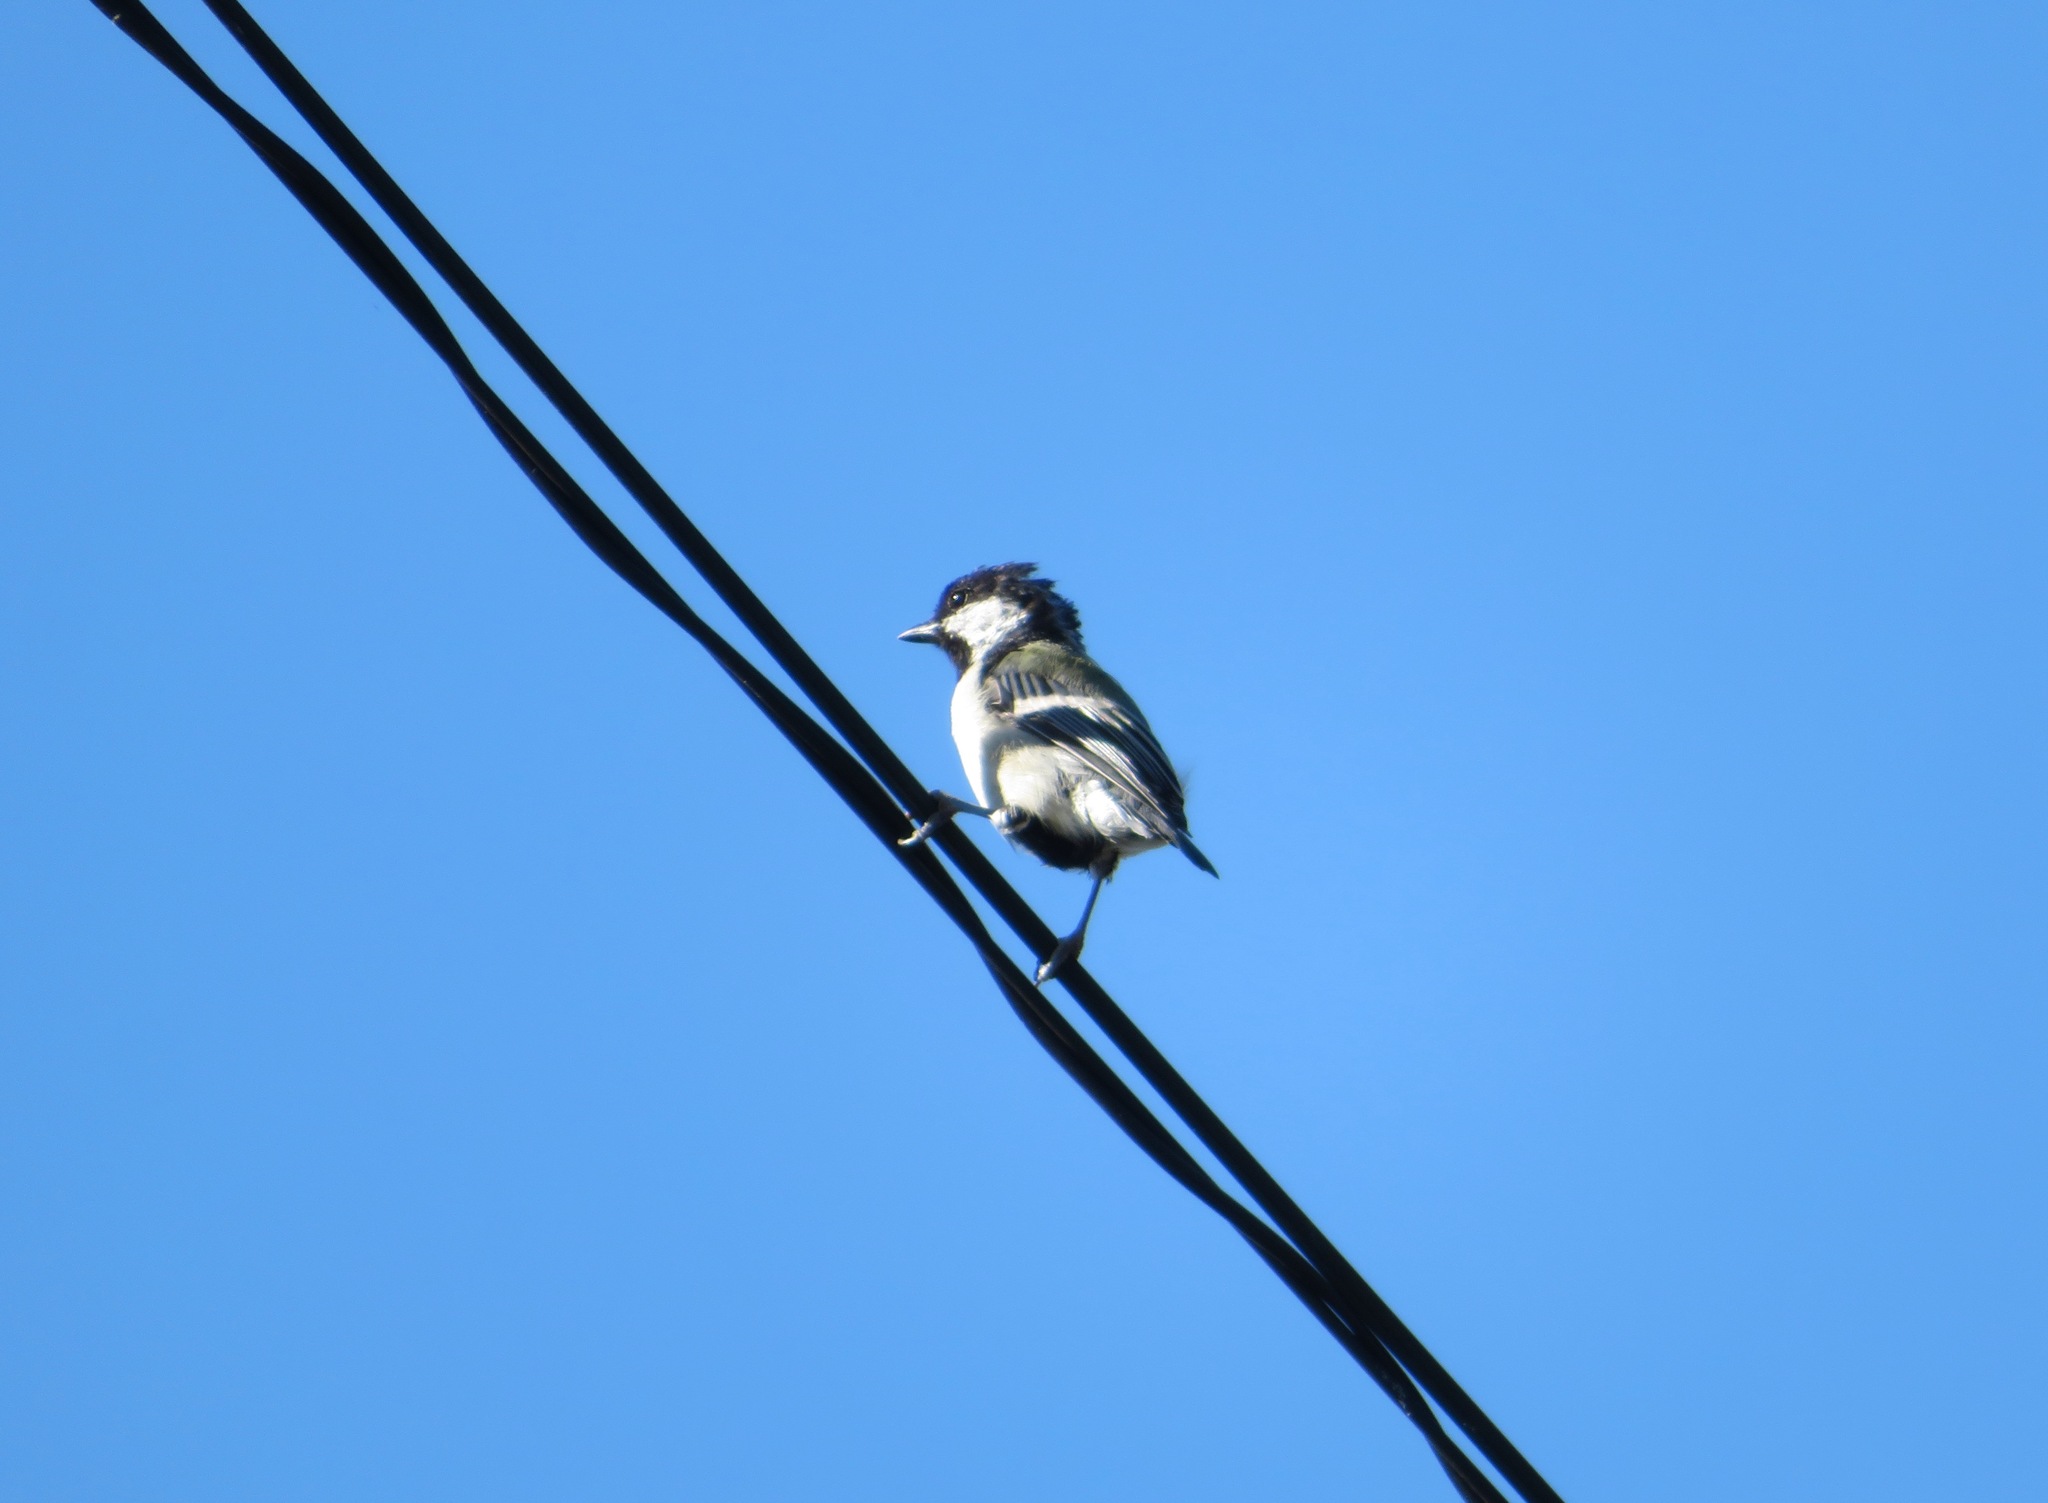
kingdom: Animalia
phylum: Chordata
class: Aves
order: Passeriformes
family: Paridae
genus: Parus
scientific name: Parus minor
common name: Japanese tit
